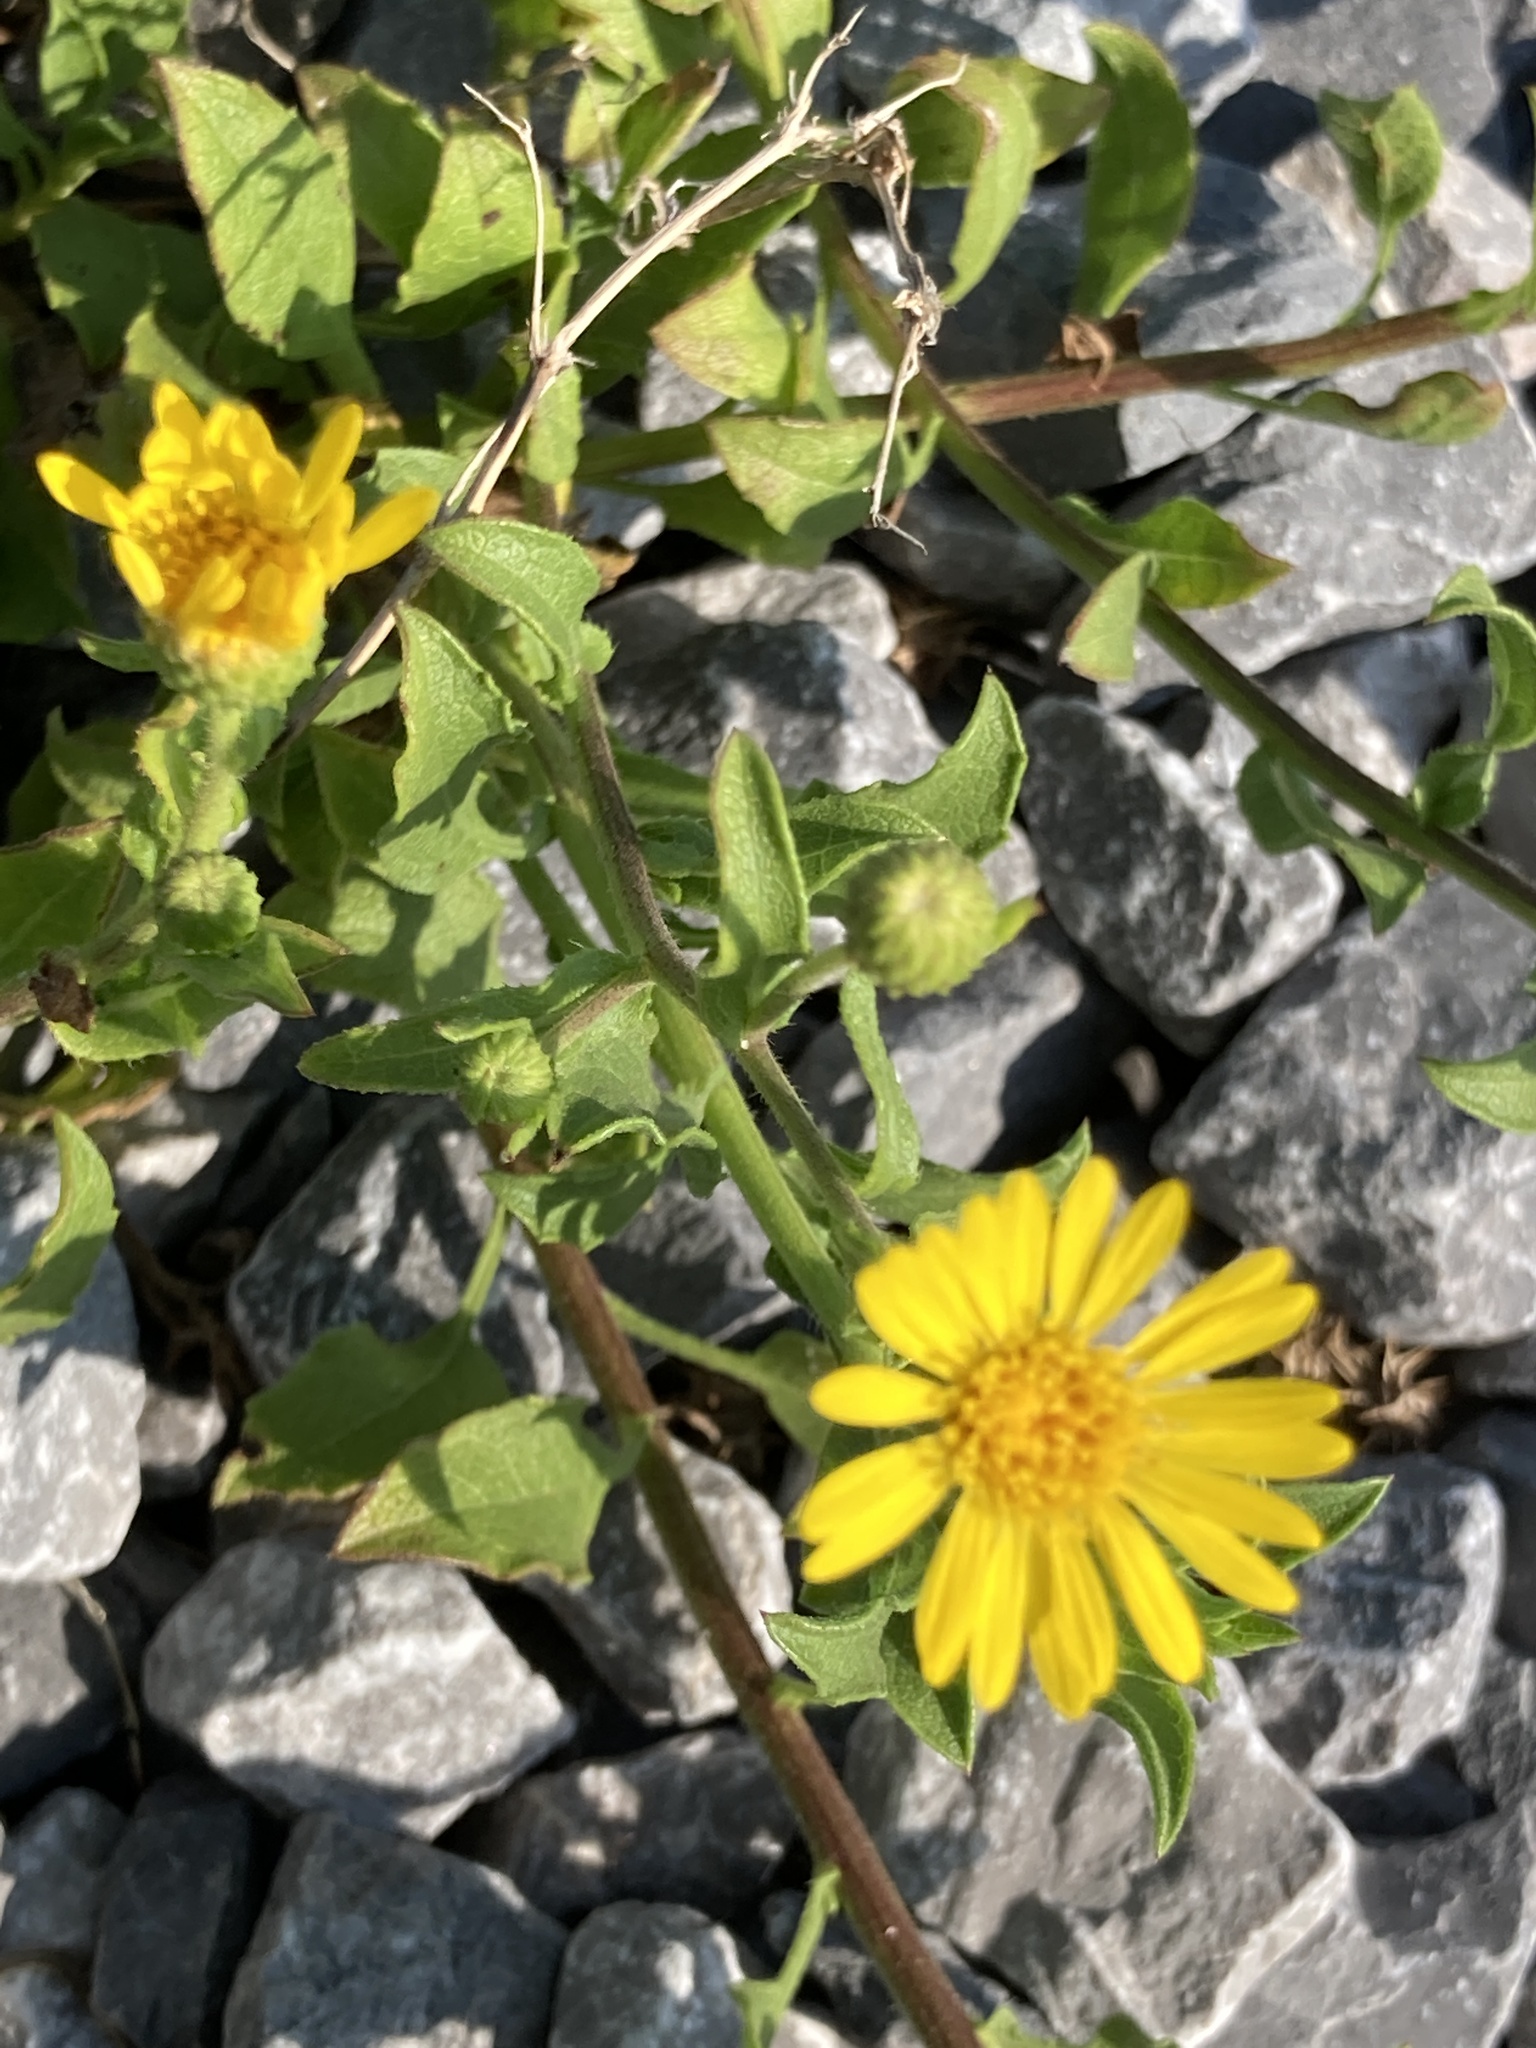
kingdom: Plantae
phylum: Tracheophyta
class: Magnoliopsida
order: Asterales
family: Asteraceae
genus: Heterotheca
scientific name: Heterotheca subaxillaris
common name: Camphorweed
